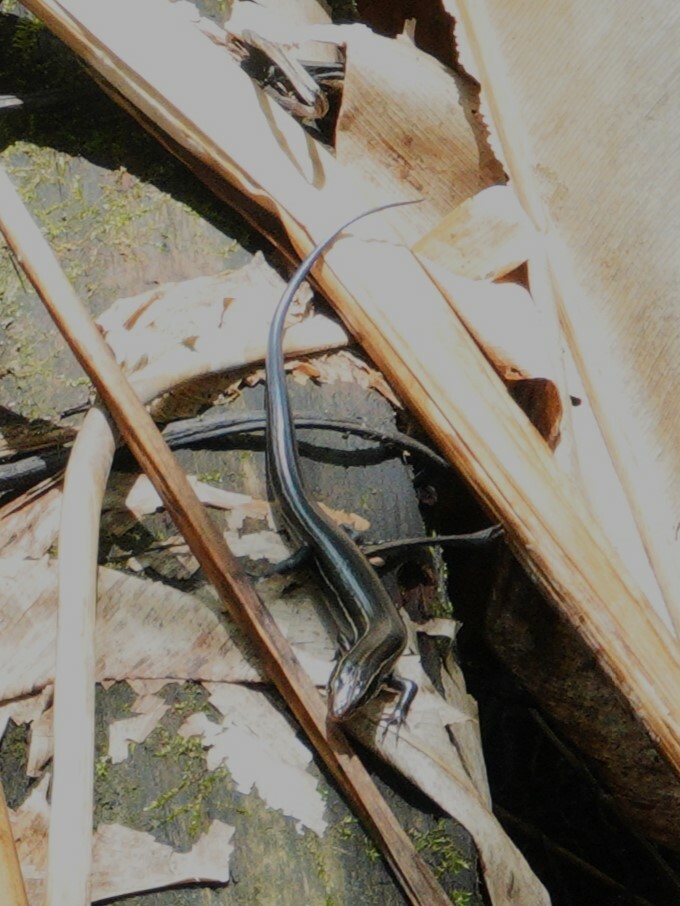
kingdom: Animalia
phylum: Chordata
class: Squamata
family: Scincidae
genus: Plestiodon
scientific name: Plestiodon inexpectatus
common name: Southeastern five-lined skink
